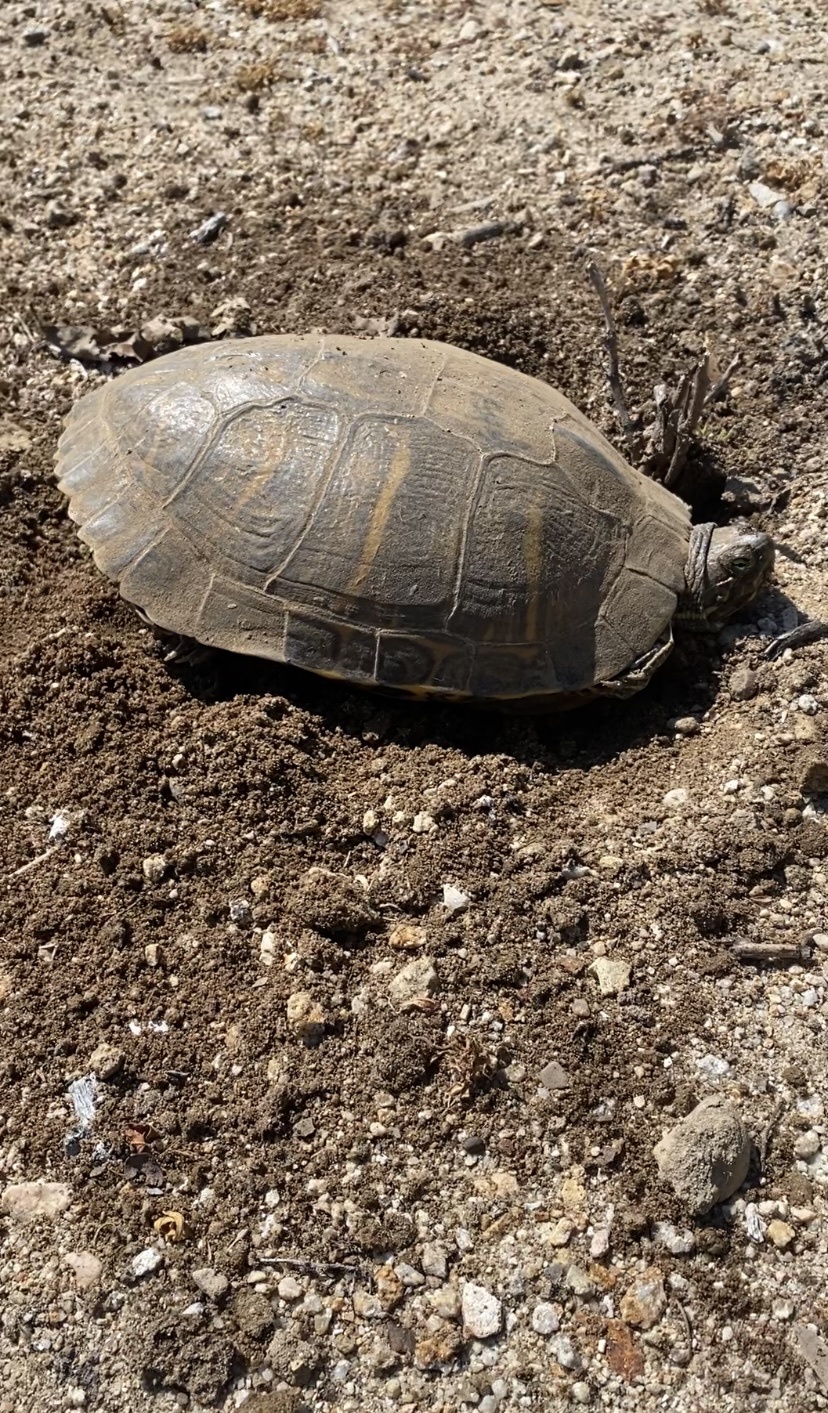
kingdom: Animalia
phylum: Chordata
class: Testudines
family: Emydidae
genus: Trachemys
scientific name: Trachemys scripta
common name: Slider
